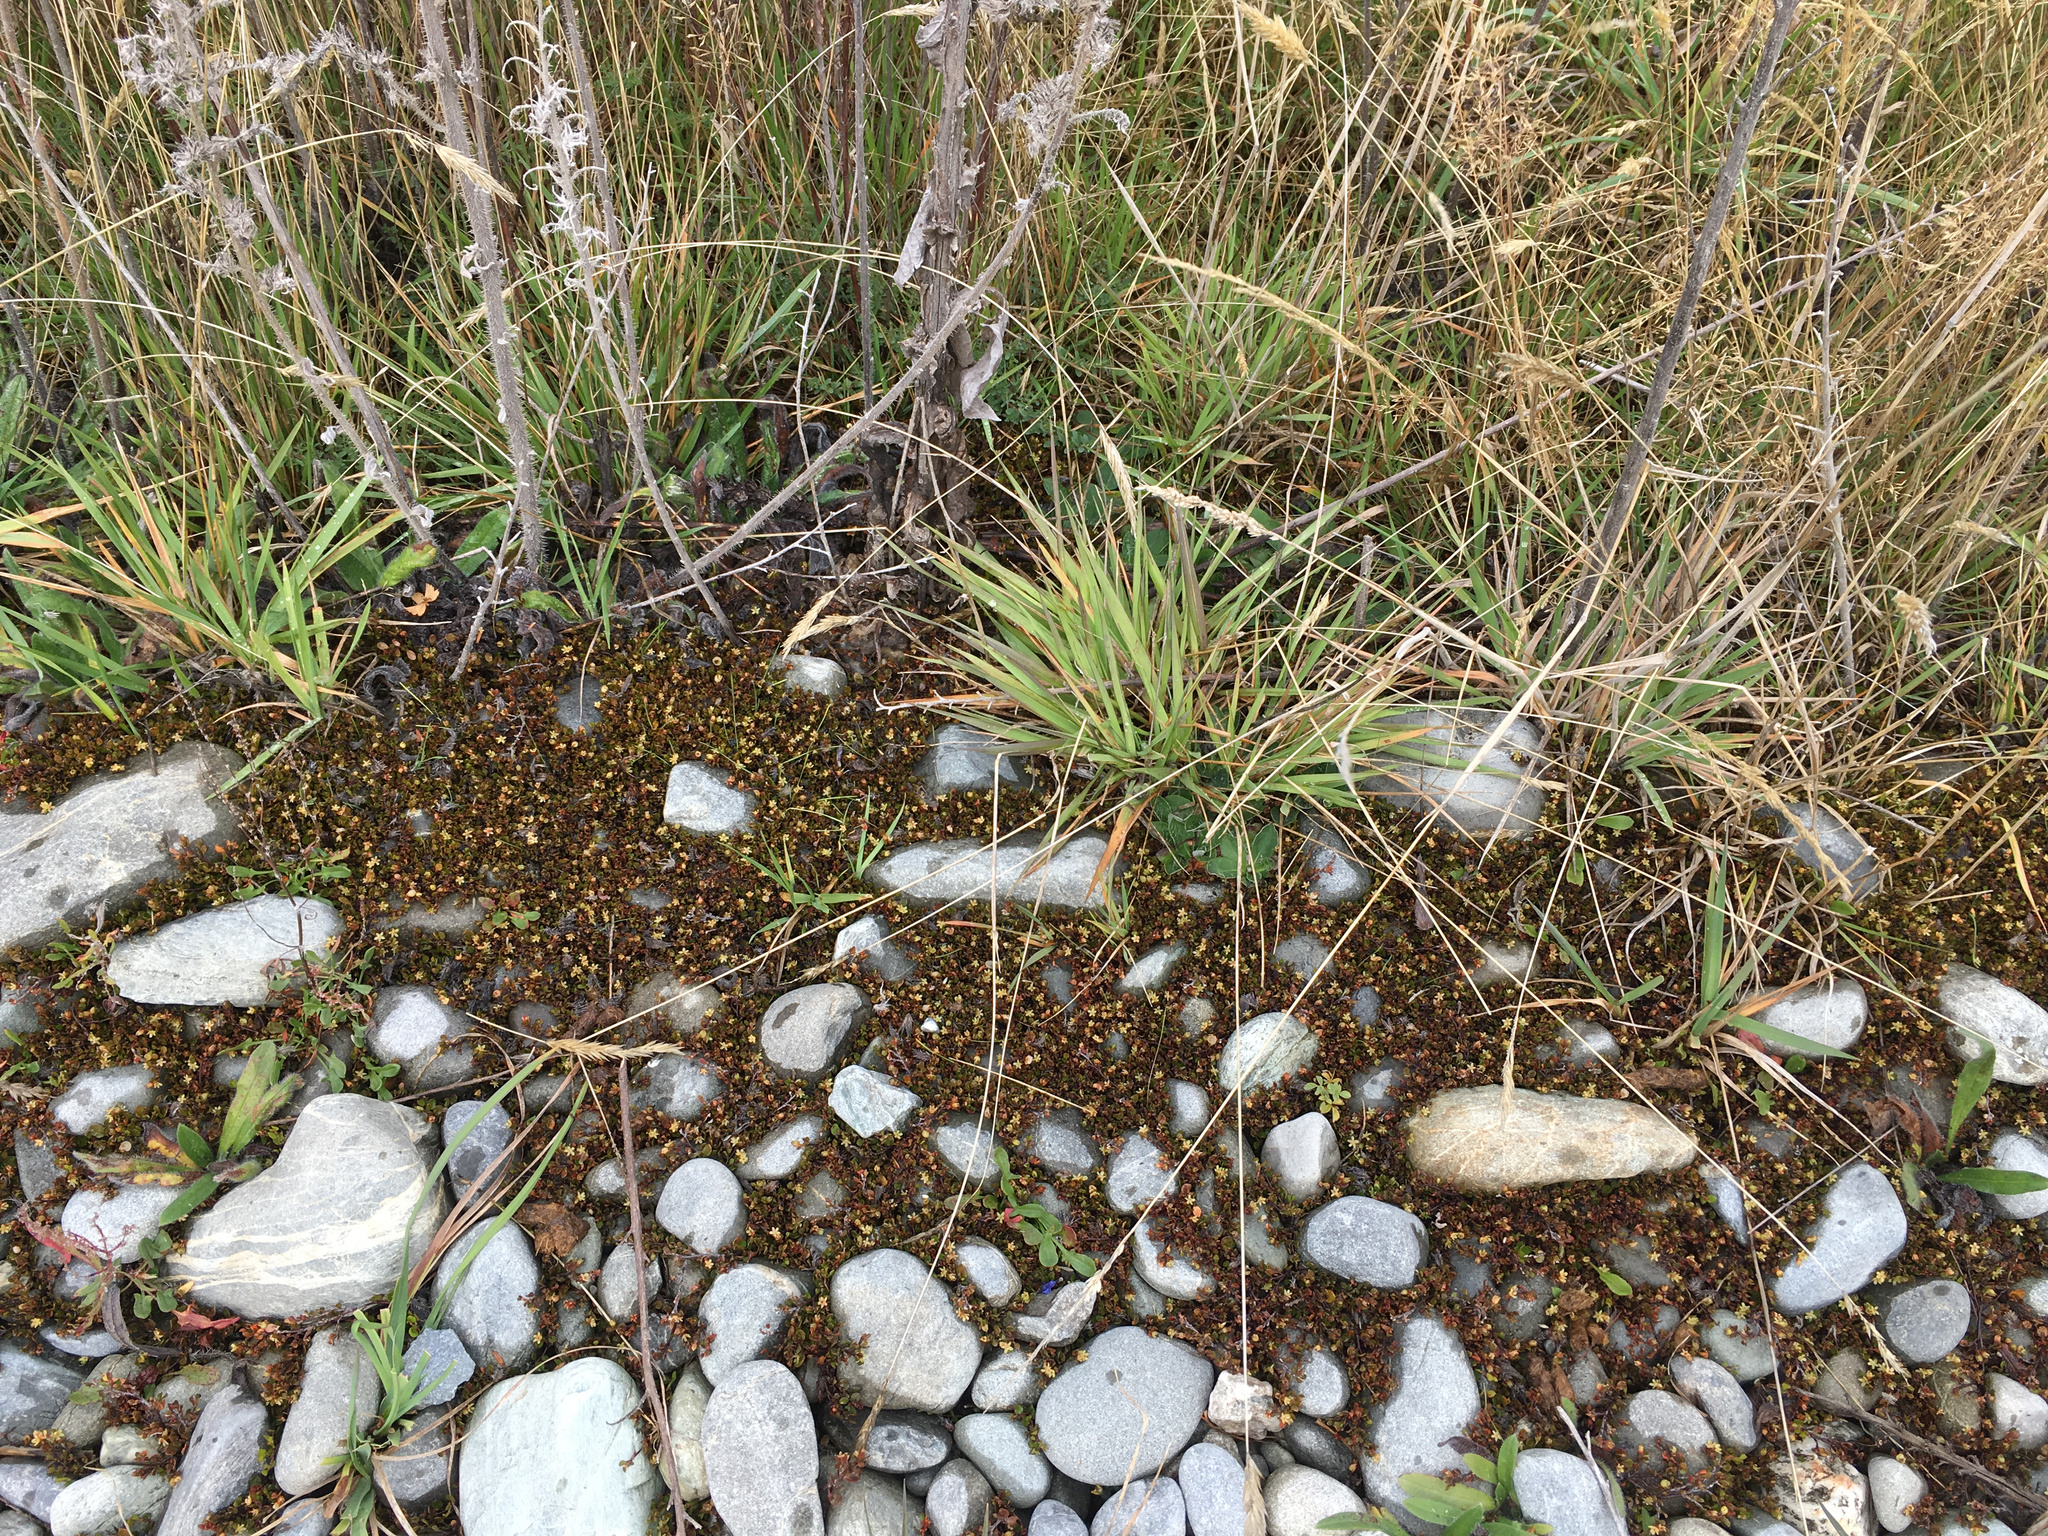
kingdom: Plantae
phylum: Tracheophyta
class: Magnoliopsida
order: Caryophyllales
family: Polygonaceae
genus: Muehlenbeckia
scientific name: Muehlenbeckia axillaris
